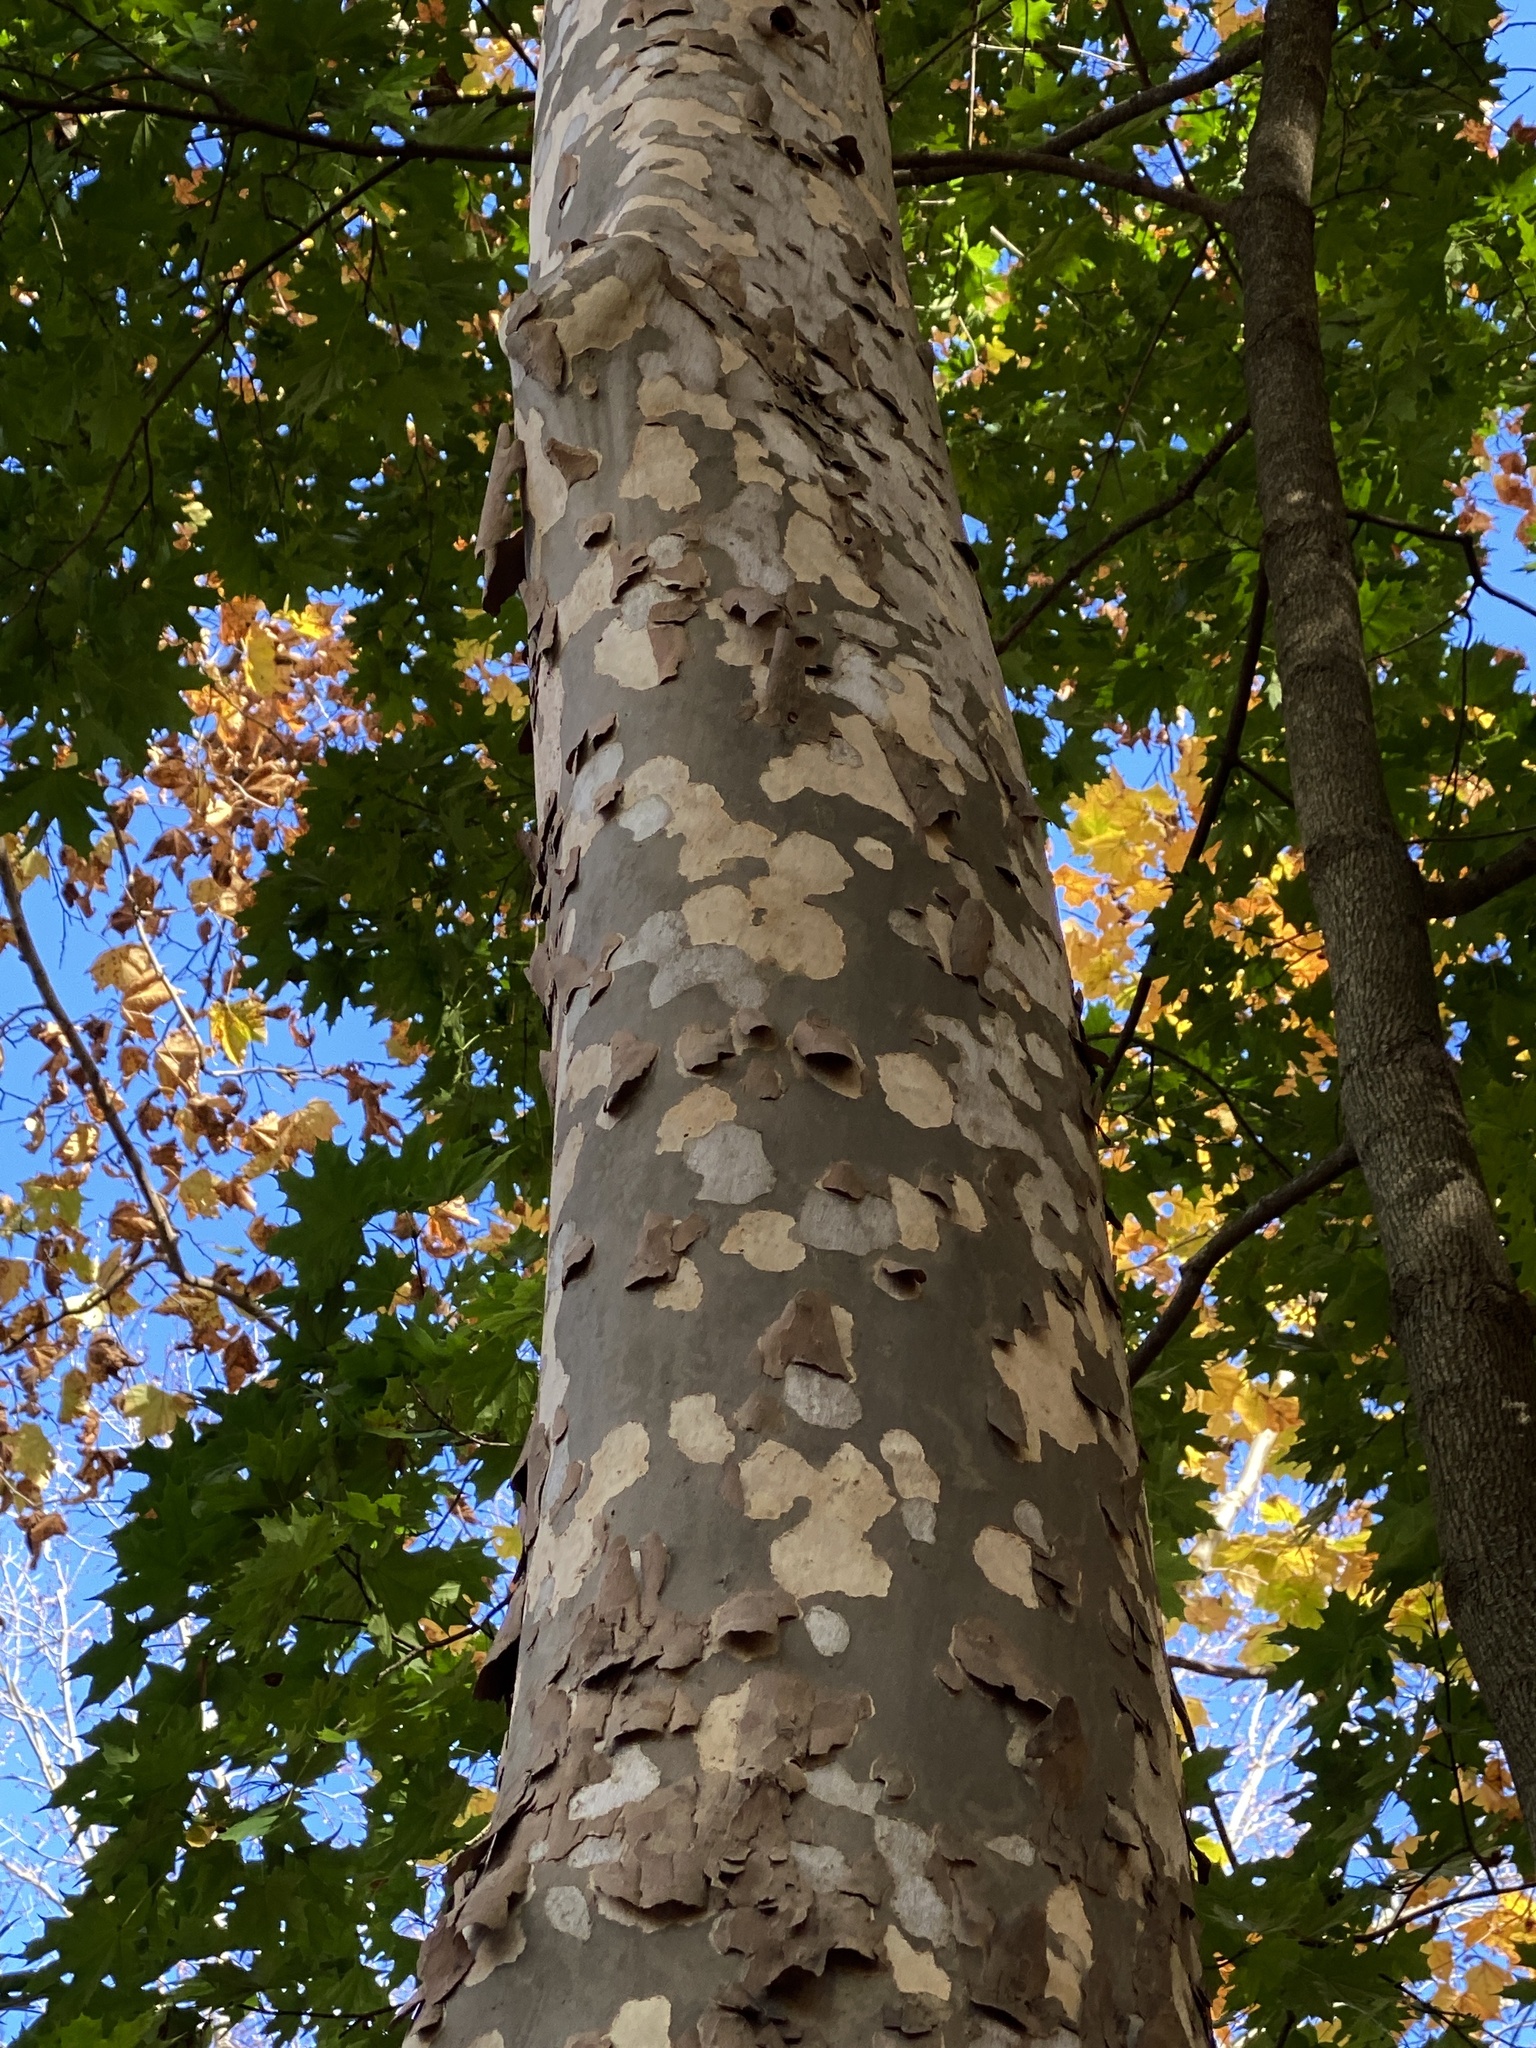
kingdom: Plantae
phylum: Tracheophyta
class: Magnoliopsida
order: Proteales
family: Platanaceae
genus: Platanus
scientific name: Platanus occidentalis
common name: American sycamore
